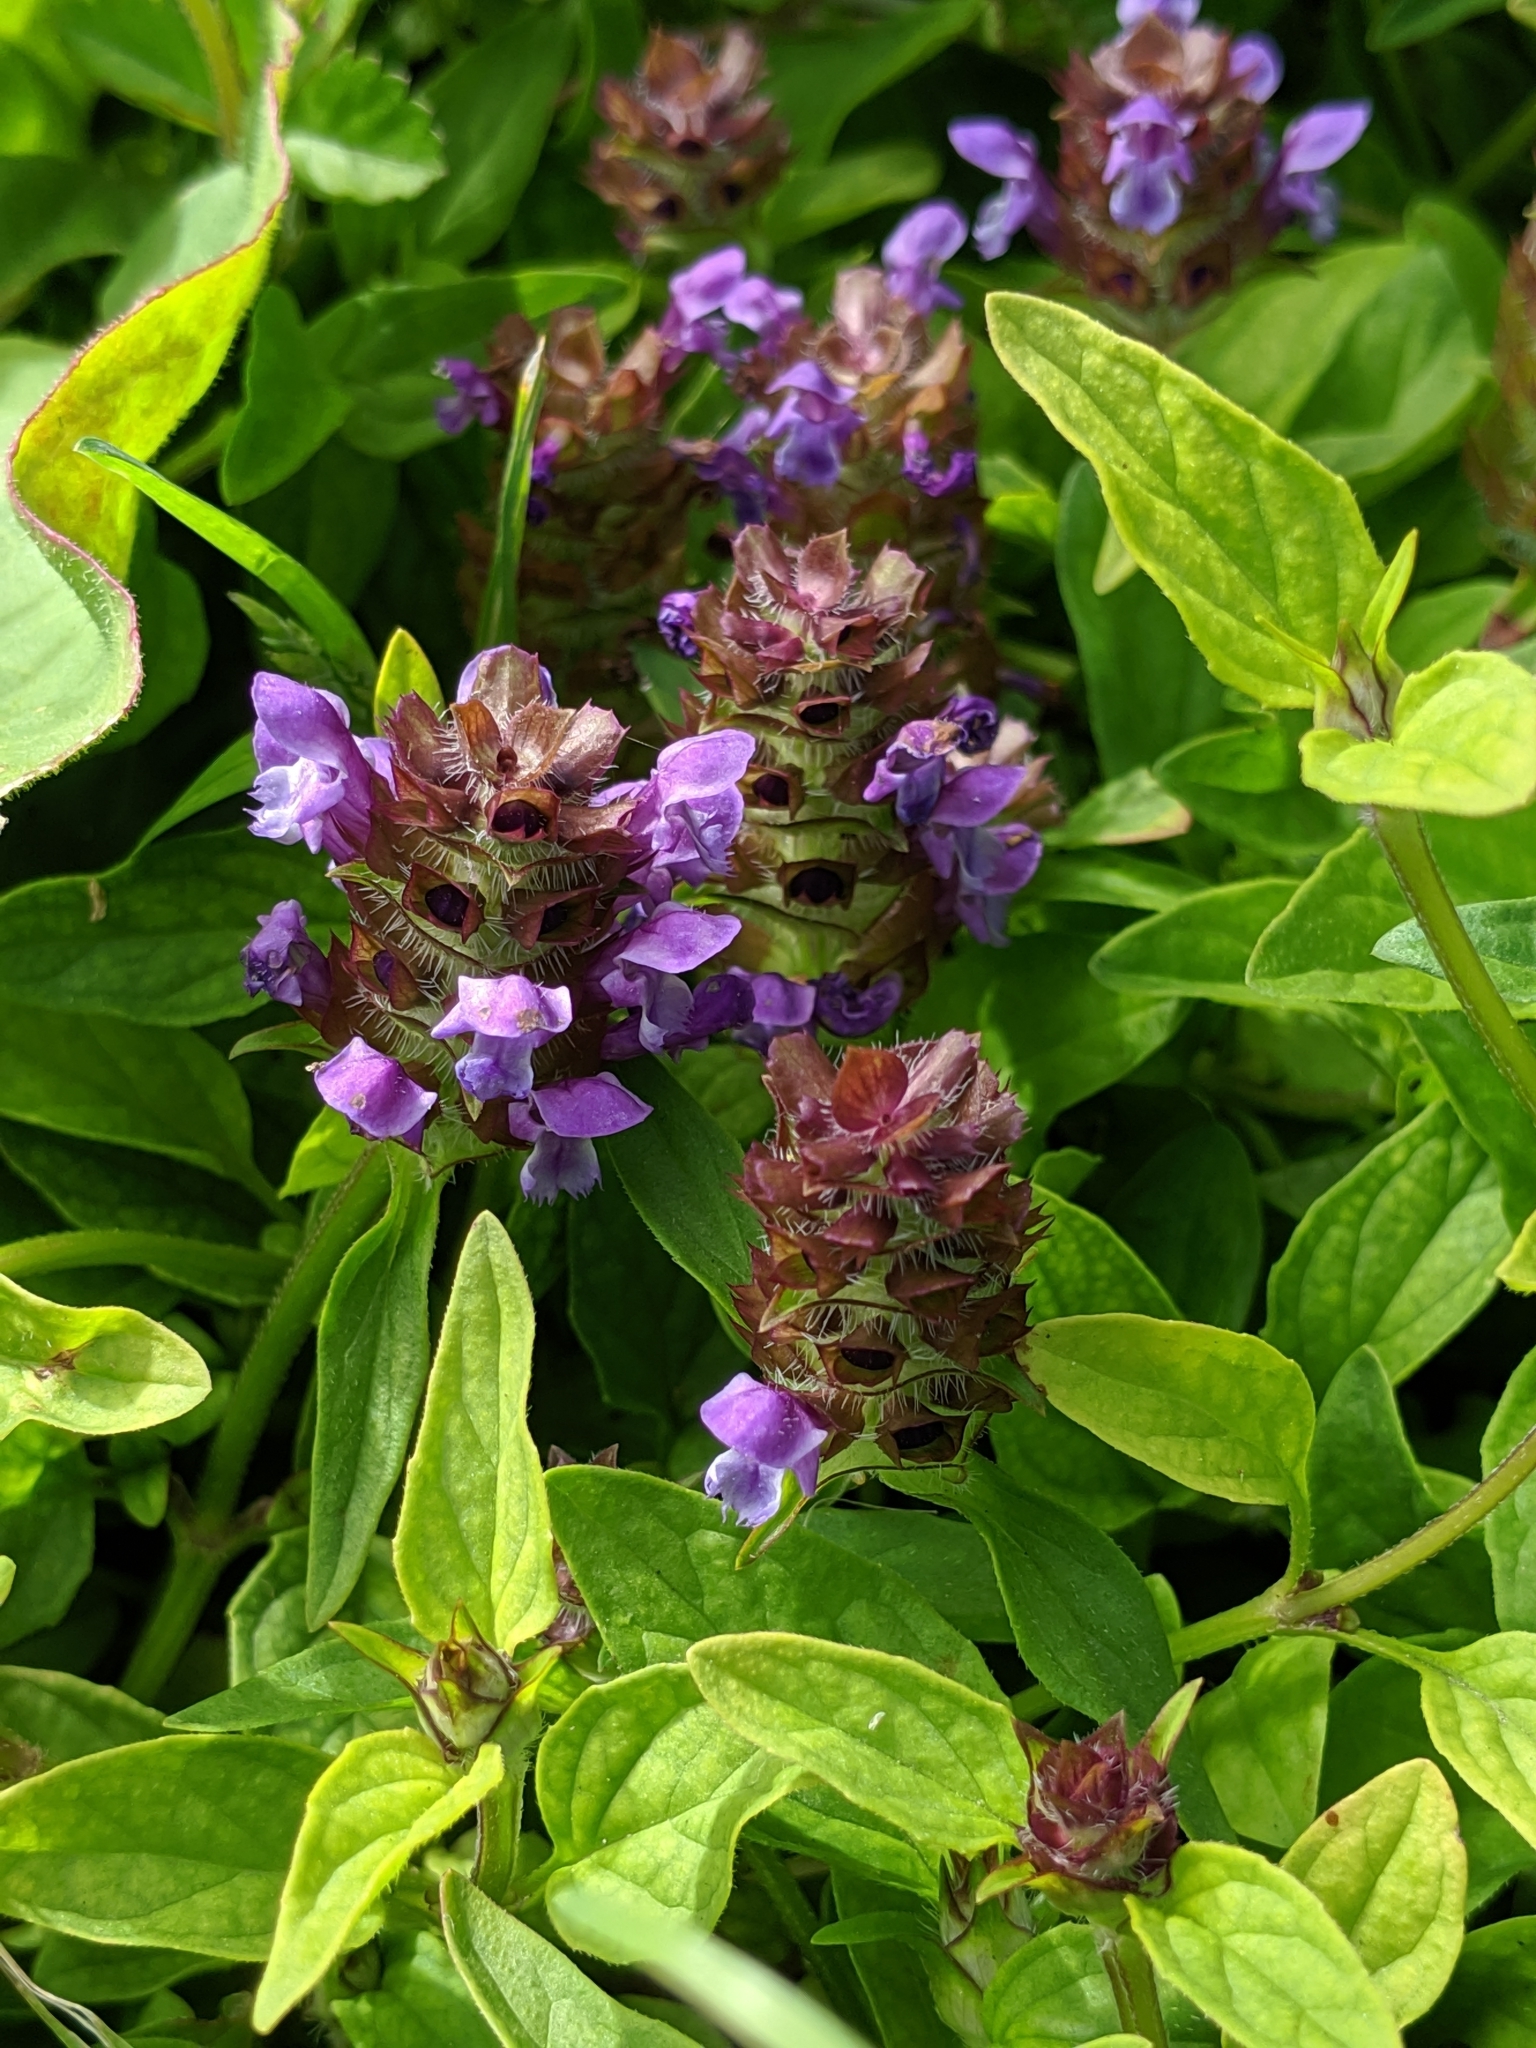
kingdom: Plantae
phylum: Tracheophyta
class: Magnoliopsida
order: Lamiales
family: Lamiaceae
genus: Prunella
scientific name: Prunella vulgaris
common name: Heal-all
